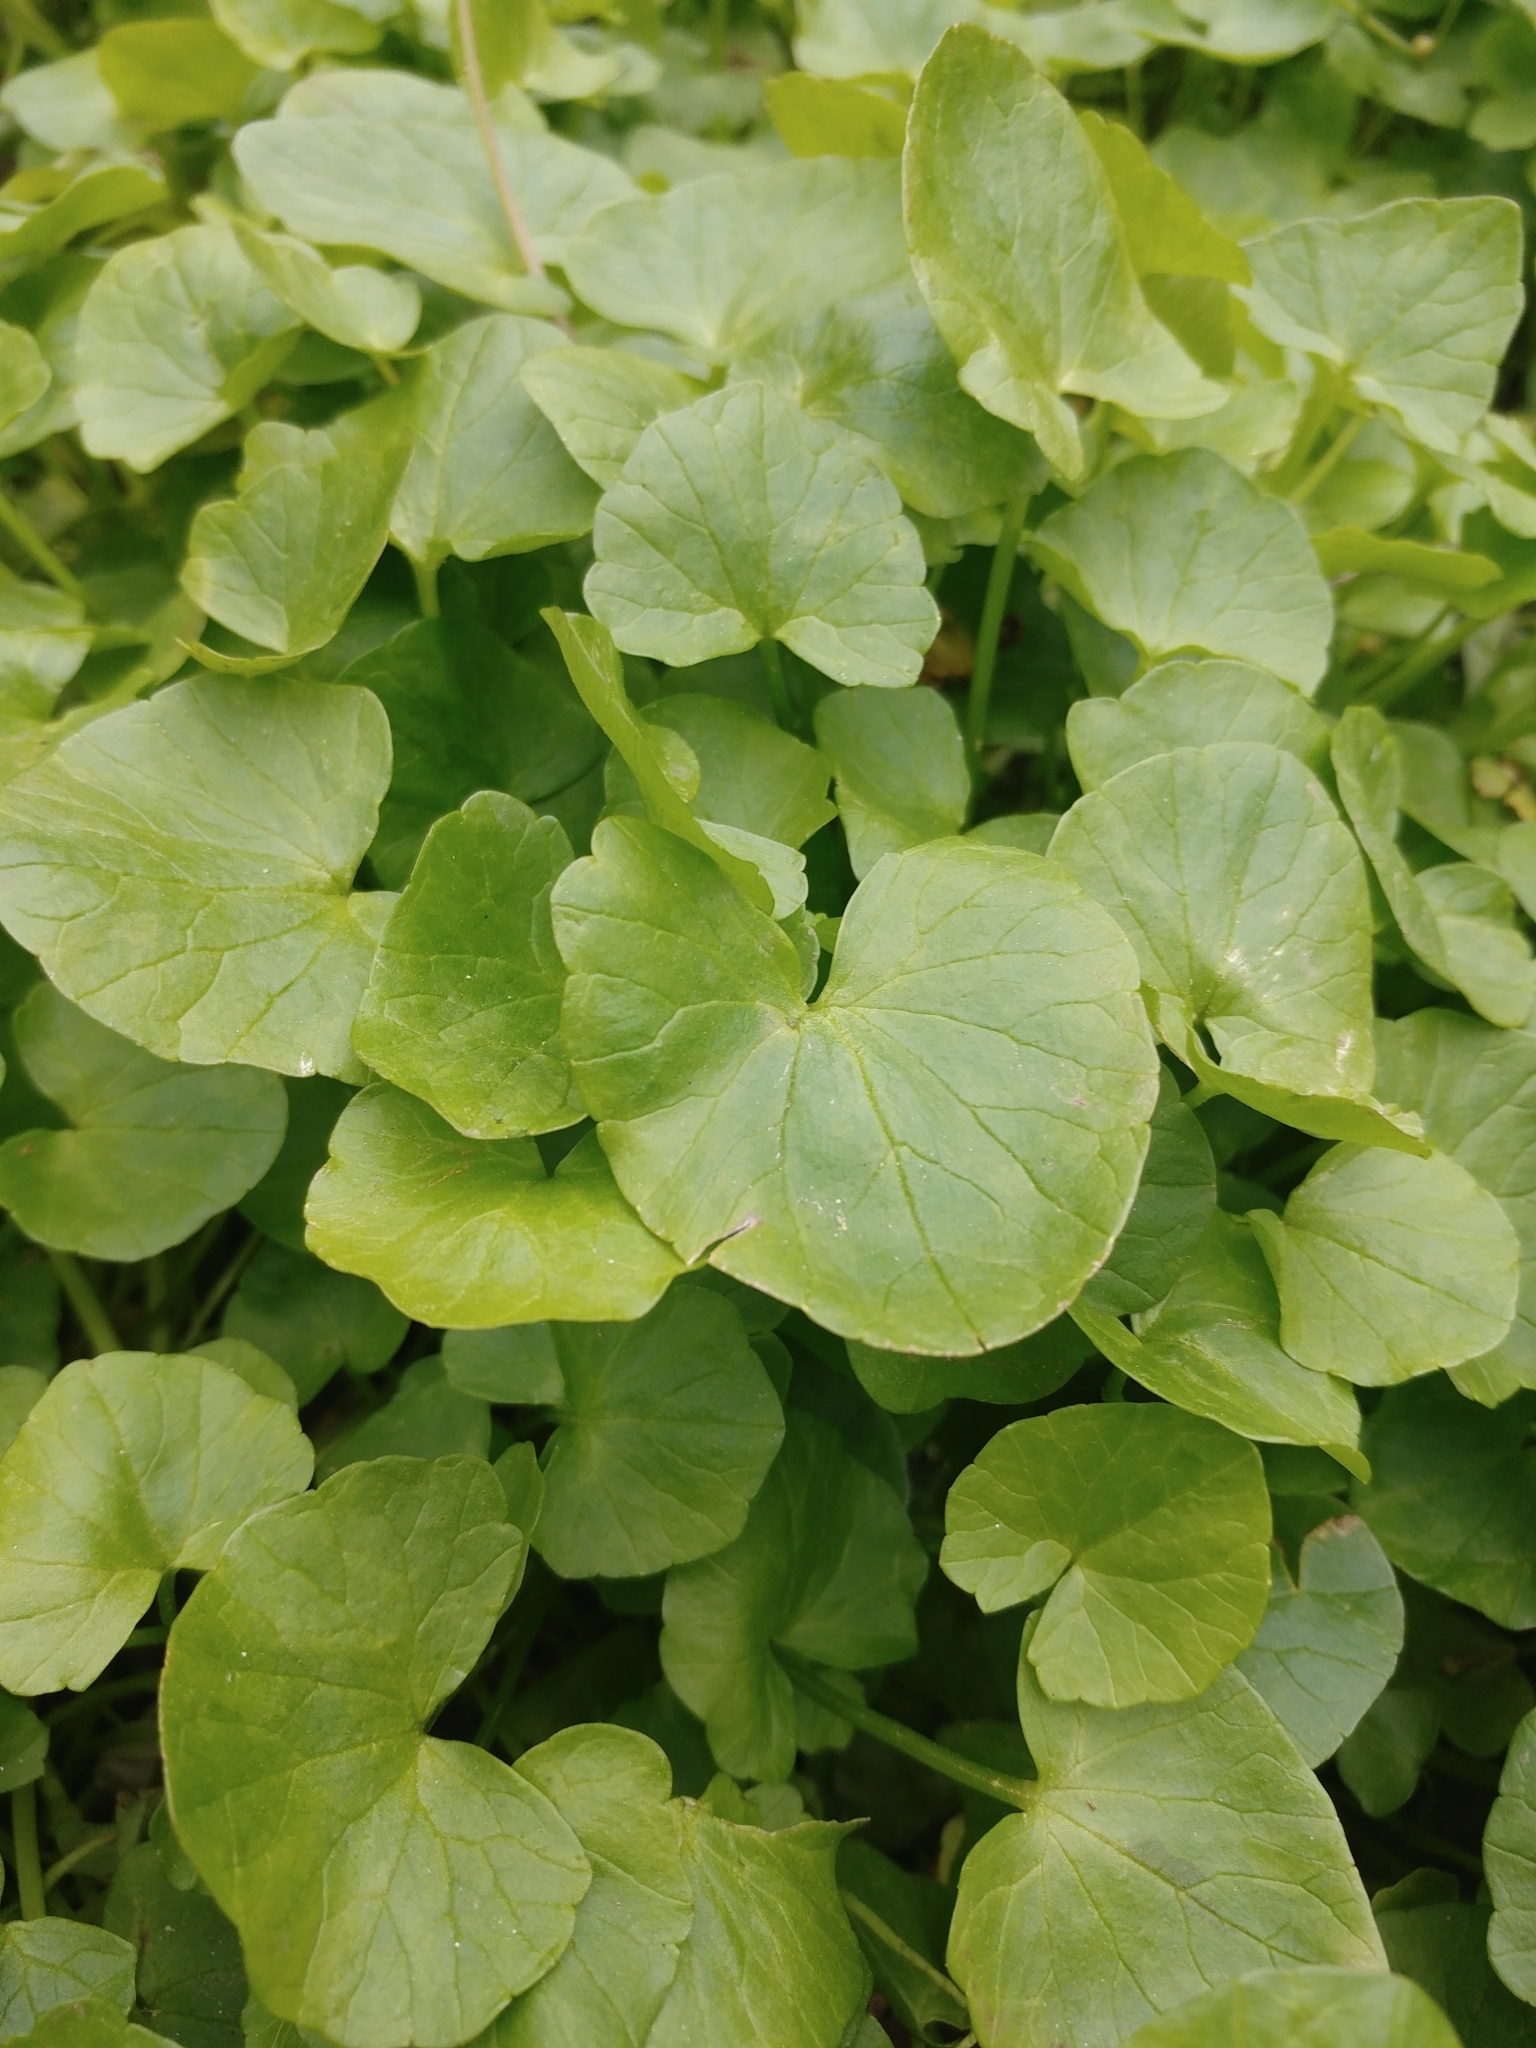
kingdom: Plantae
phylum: Tracheophyta
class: Magnoliopsida
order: Ranunculales
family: Ranunculaceae
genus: Ficaria
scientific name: Ficaria verna
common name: Lesser celandine
